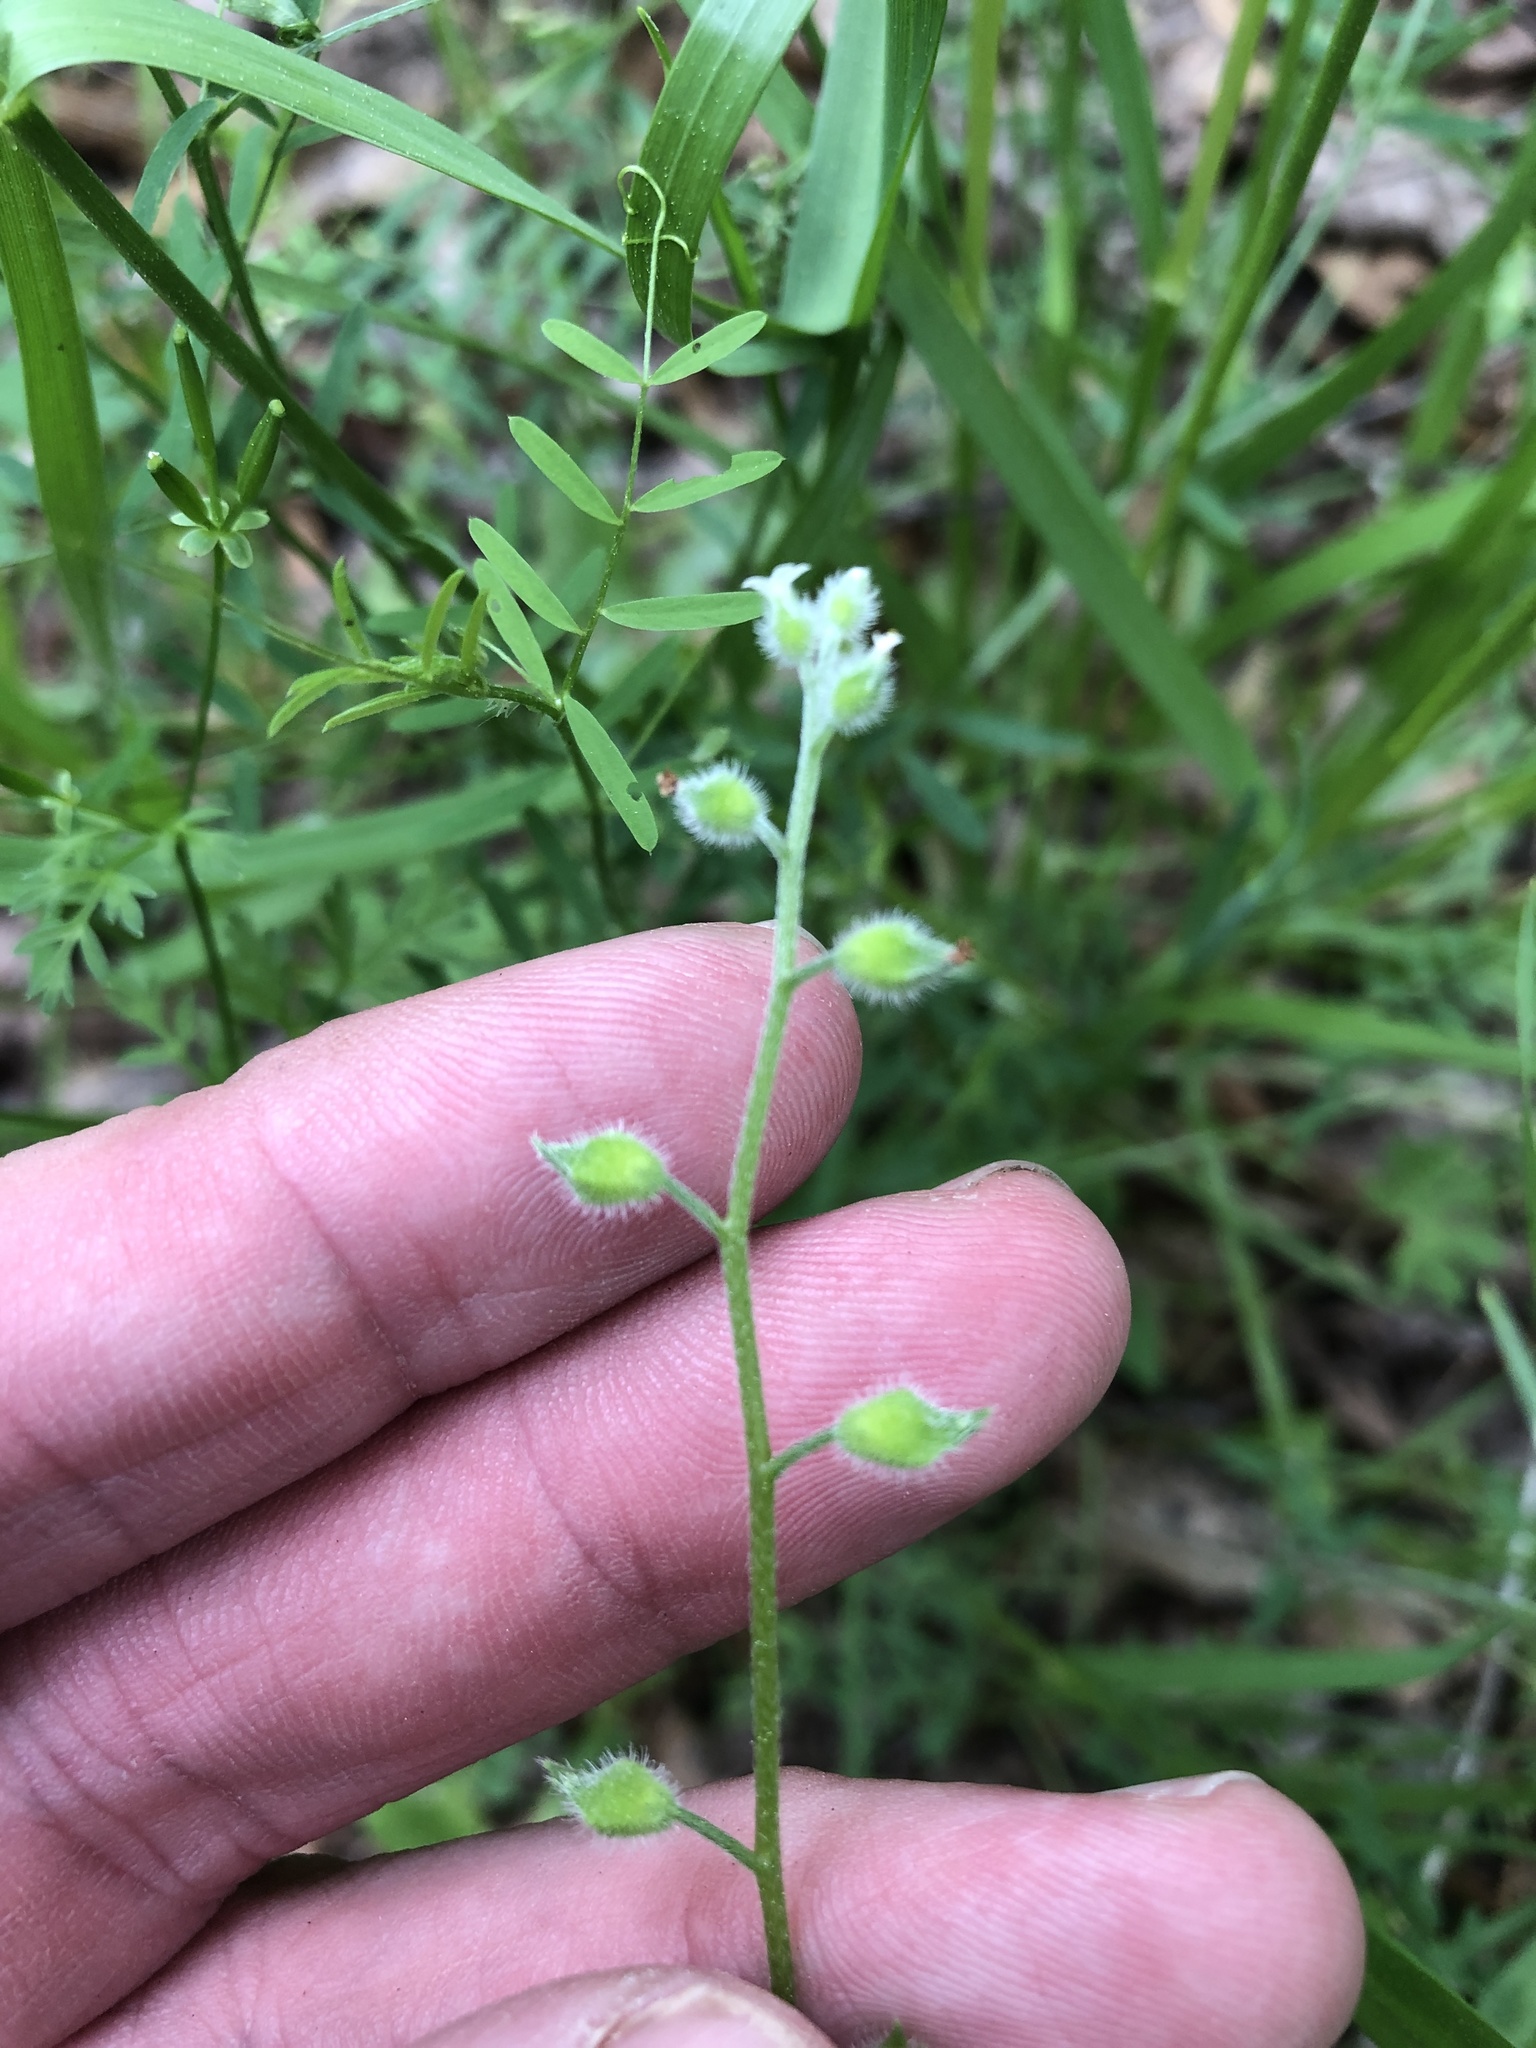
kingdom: Plantae
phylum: Tracheophyta
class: Magnoliopsida
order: Boraginales
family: Boraginaceae
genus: Myosotis
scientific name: Myosotis macrosperma
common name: Large-seed forget-me-not
